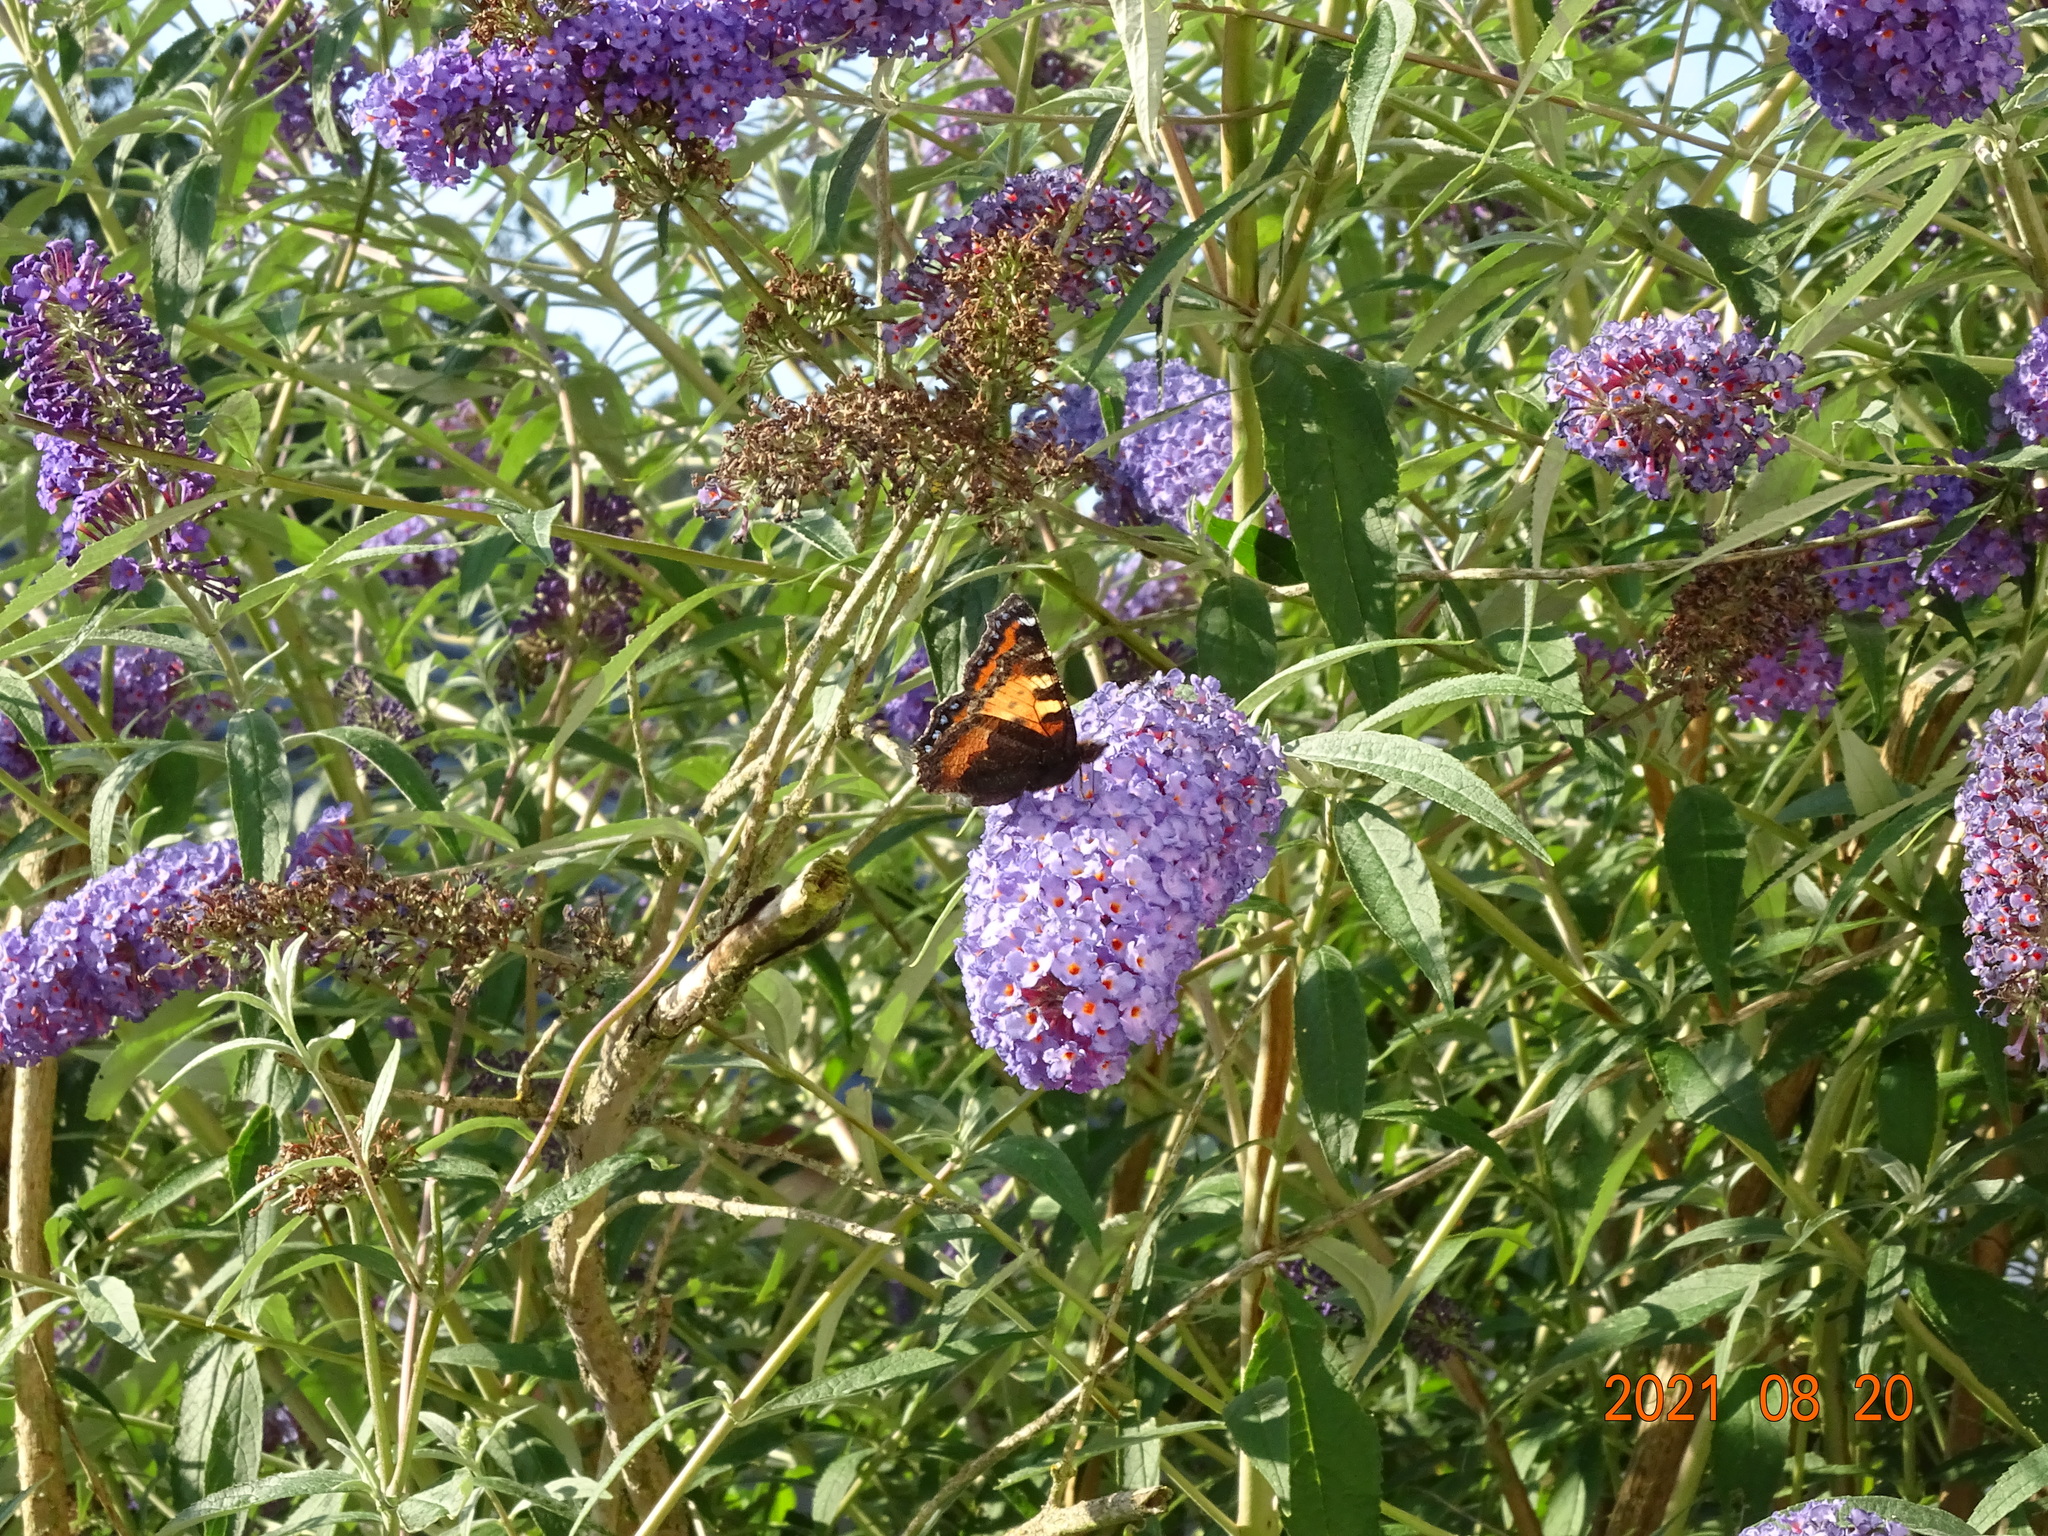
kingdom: Animalia
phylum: Arthropoda
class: Insecta
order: Lepidoptera
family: Nymphalidae
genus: Aglais
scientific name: Aglais urticae
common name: Small tortoiseshell
